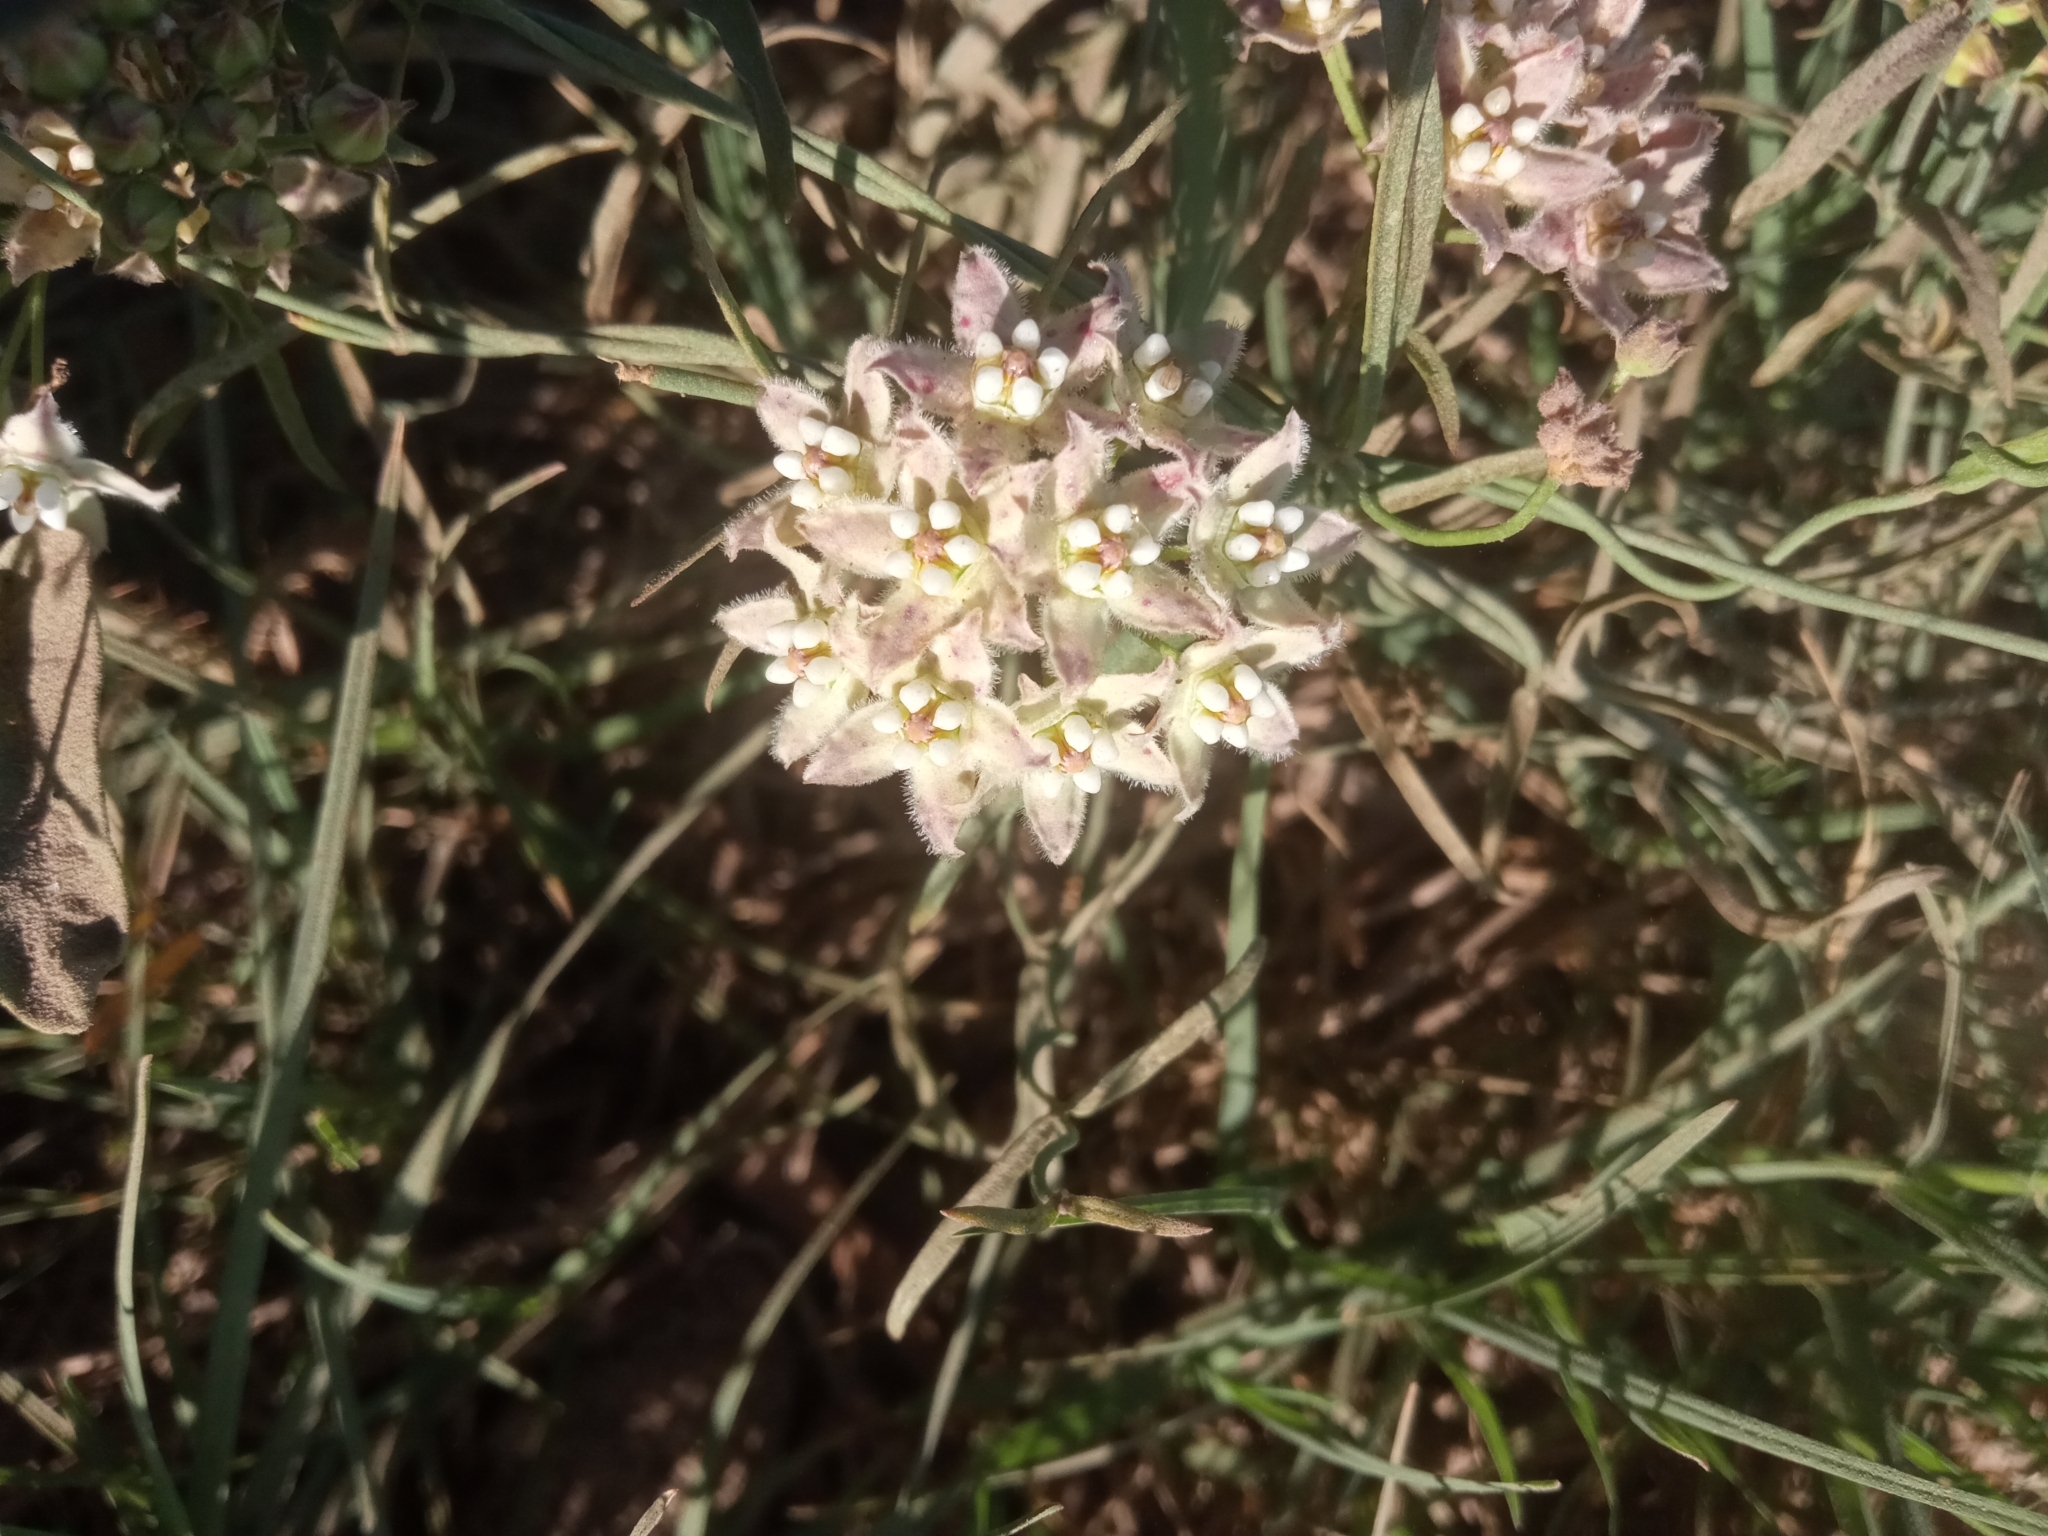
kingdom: Plantae
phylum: Tracheophyta
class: Magnoliopsida
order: Gentianales
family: Apocynaceae
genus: Funastrum
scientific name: Funastrum heterophyllum
